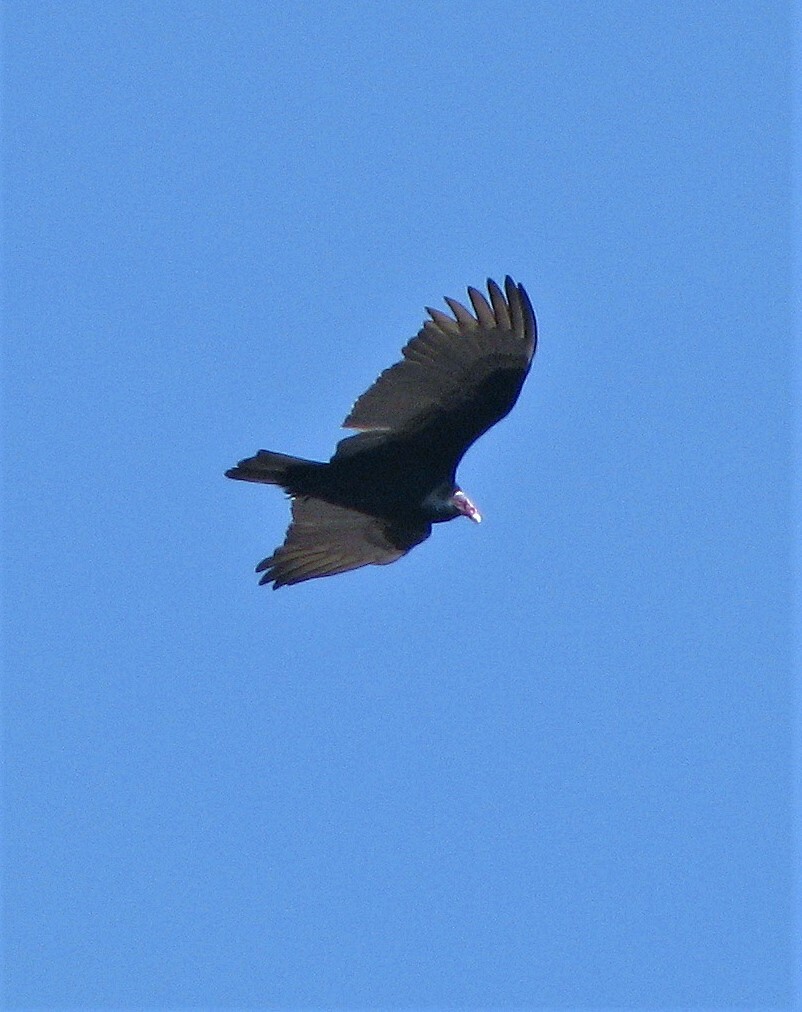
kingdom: Animalia
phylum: Chordata
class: Aves
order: Accipitriformes
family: Cathartidae
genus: Cathartes
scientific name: Cathartes aura
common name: Turkey vulture
